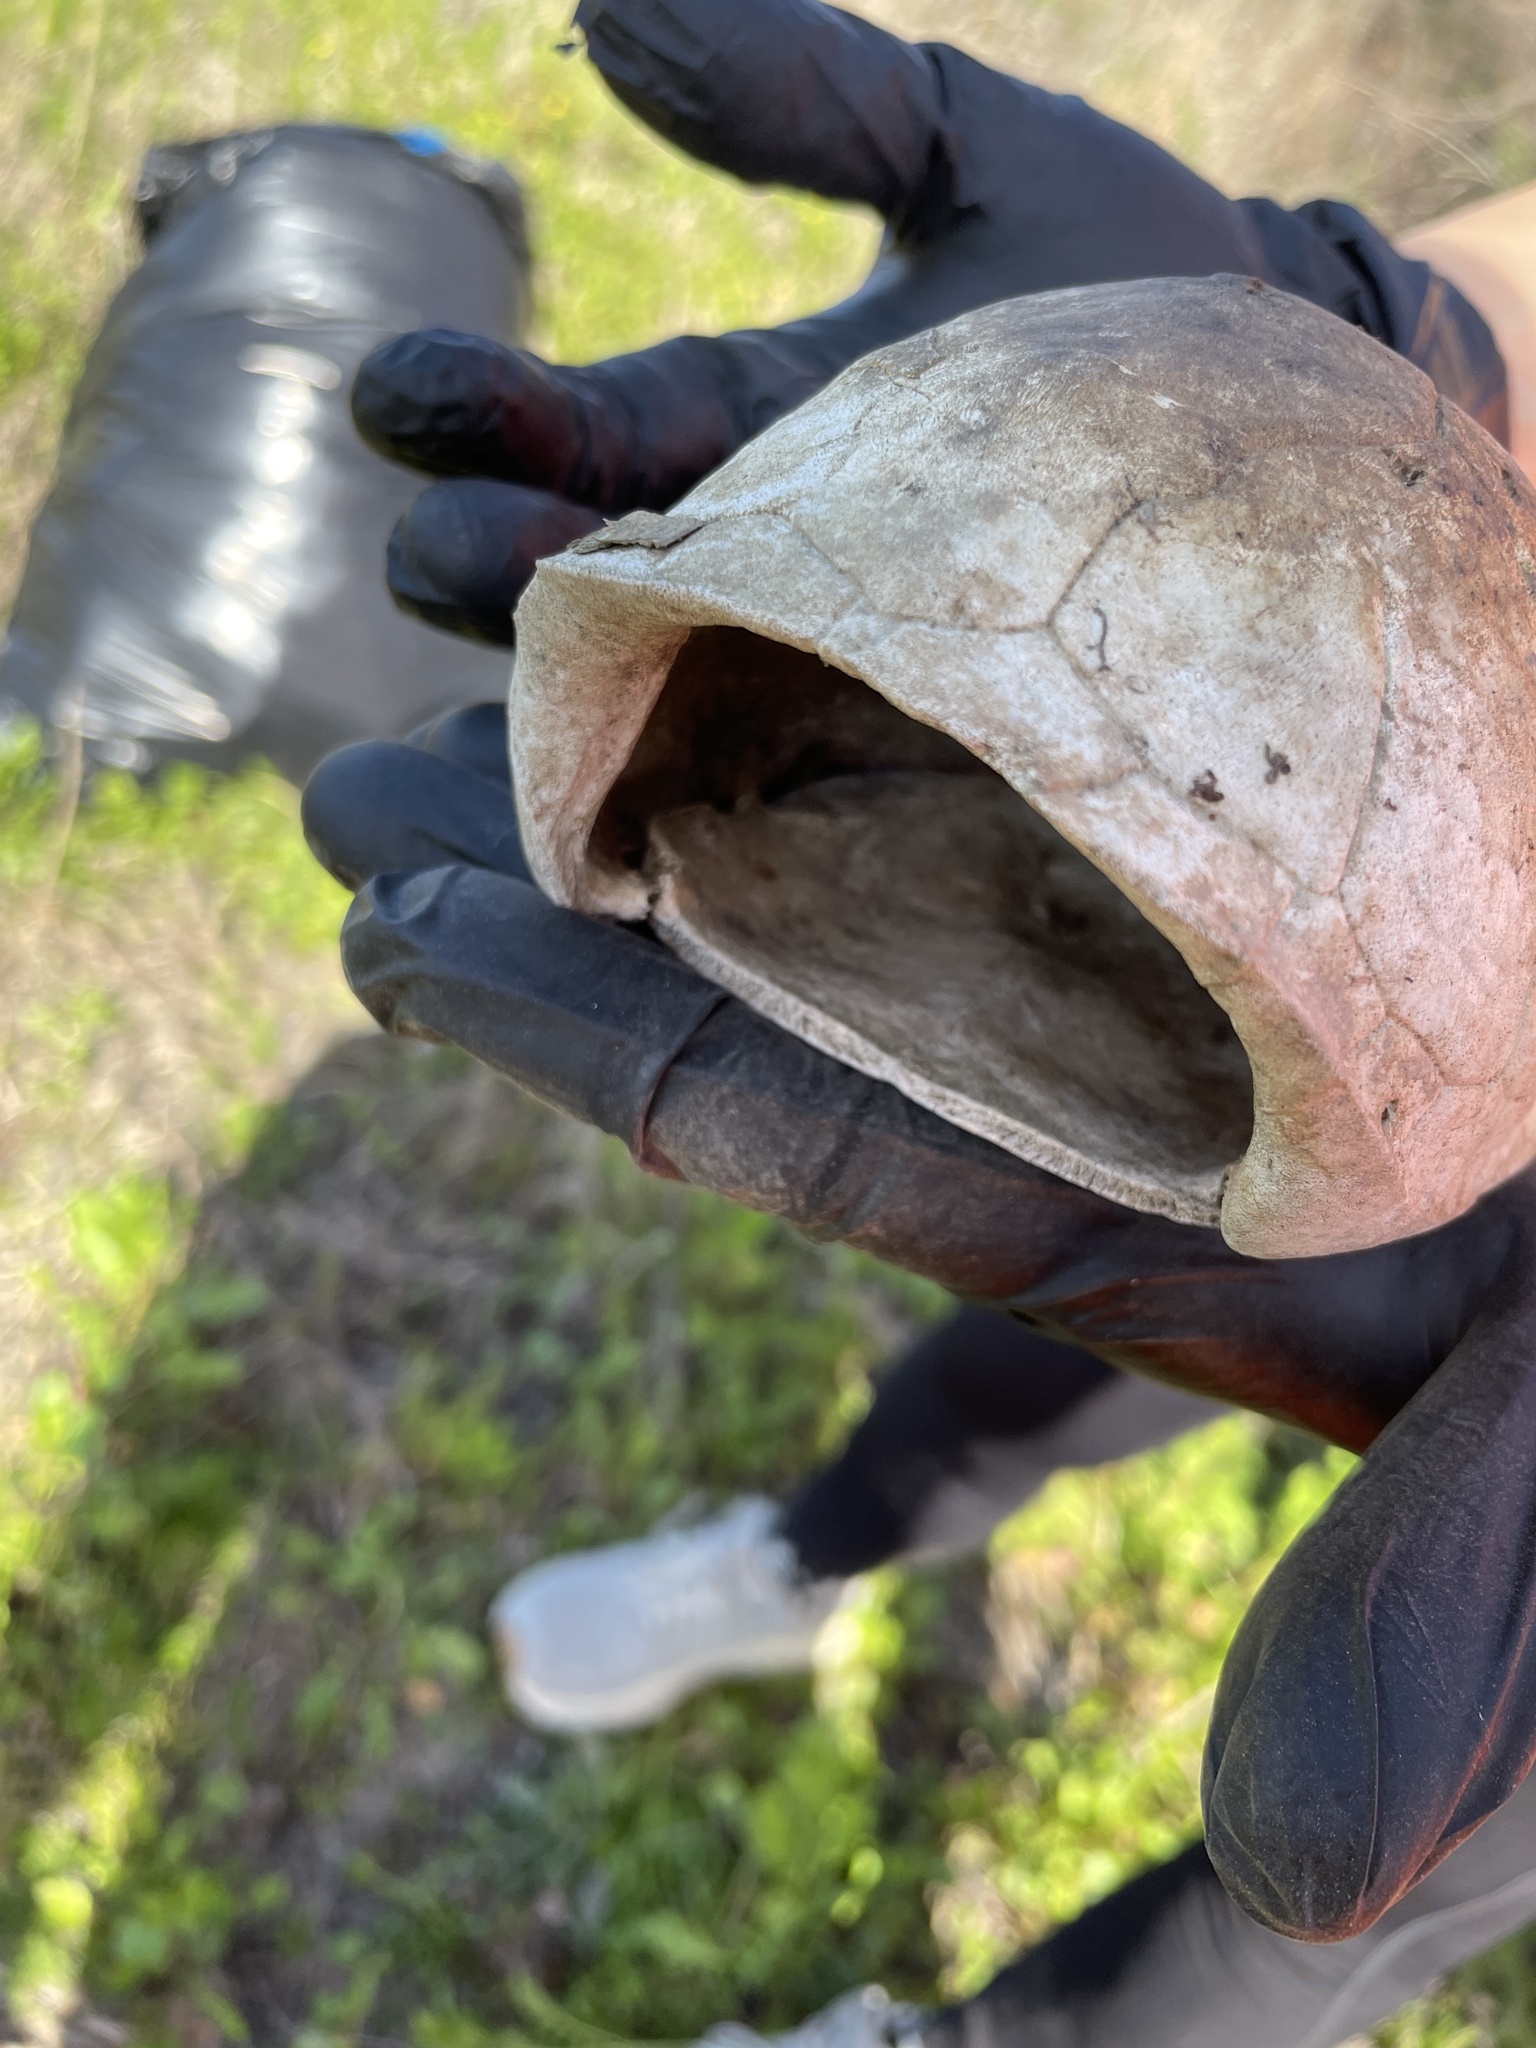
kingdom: Animalia
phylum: Chordata
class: Testudines
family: Emydidae
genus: Terrapene
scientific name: Terrapene carolina
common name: Common box turtle
